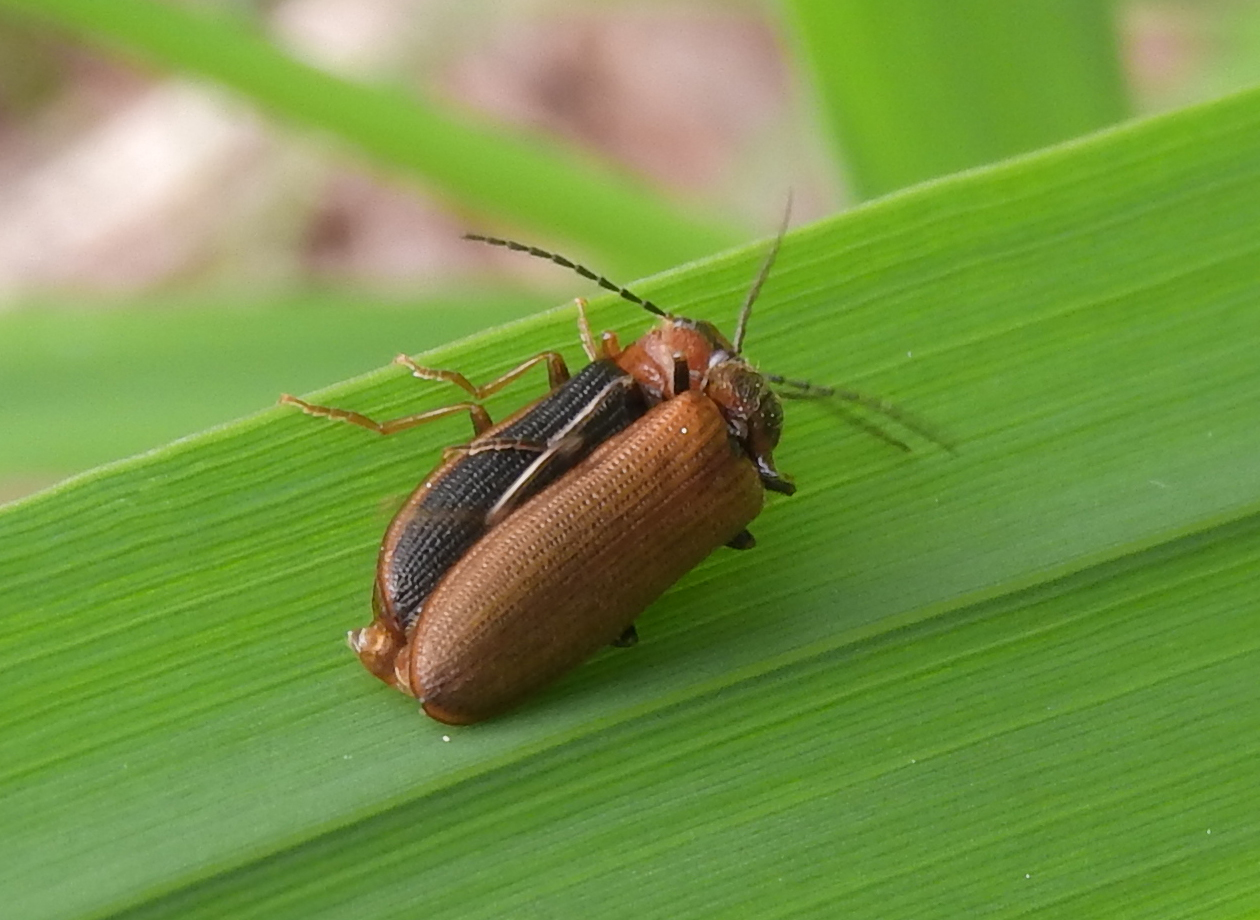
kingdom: Animalia
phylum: Arthropoda
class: Insecta
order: Coleoptera
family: Elateridae
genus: Denticollis
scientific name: Denticollis linearis
